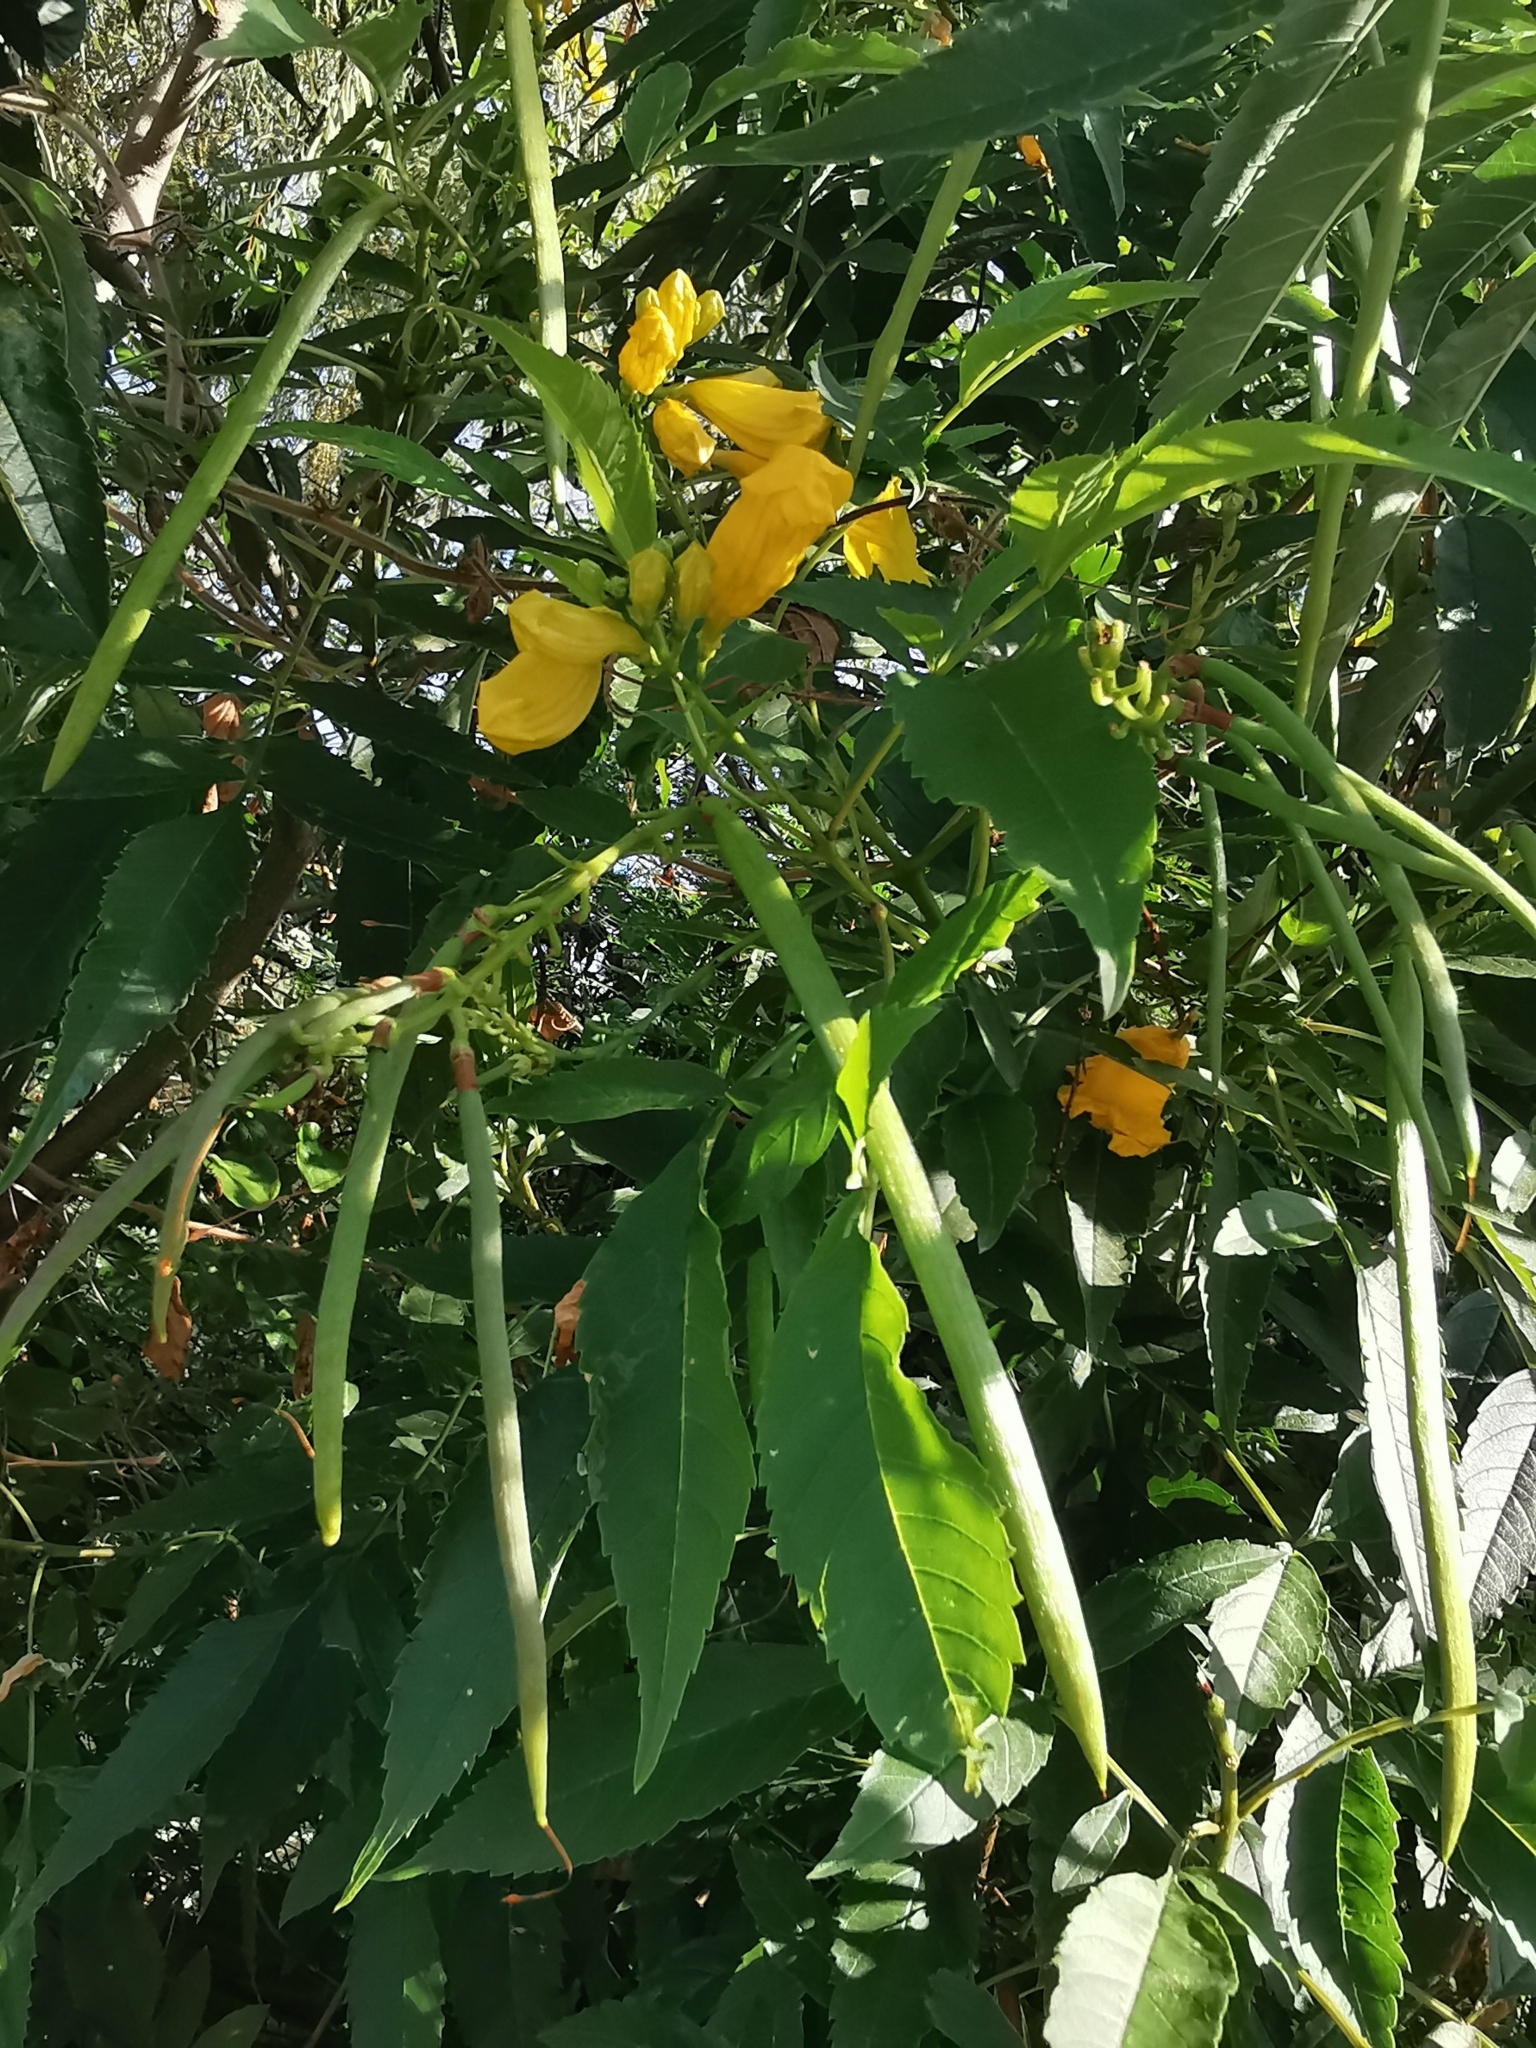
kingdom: Plantae
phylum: Tracheophyta
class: Magnoliopsida
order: Lamiales
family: Bignoniaceae
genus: Tecoma
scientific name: Tecoma stans
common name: Yellow trumpetbush
